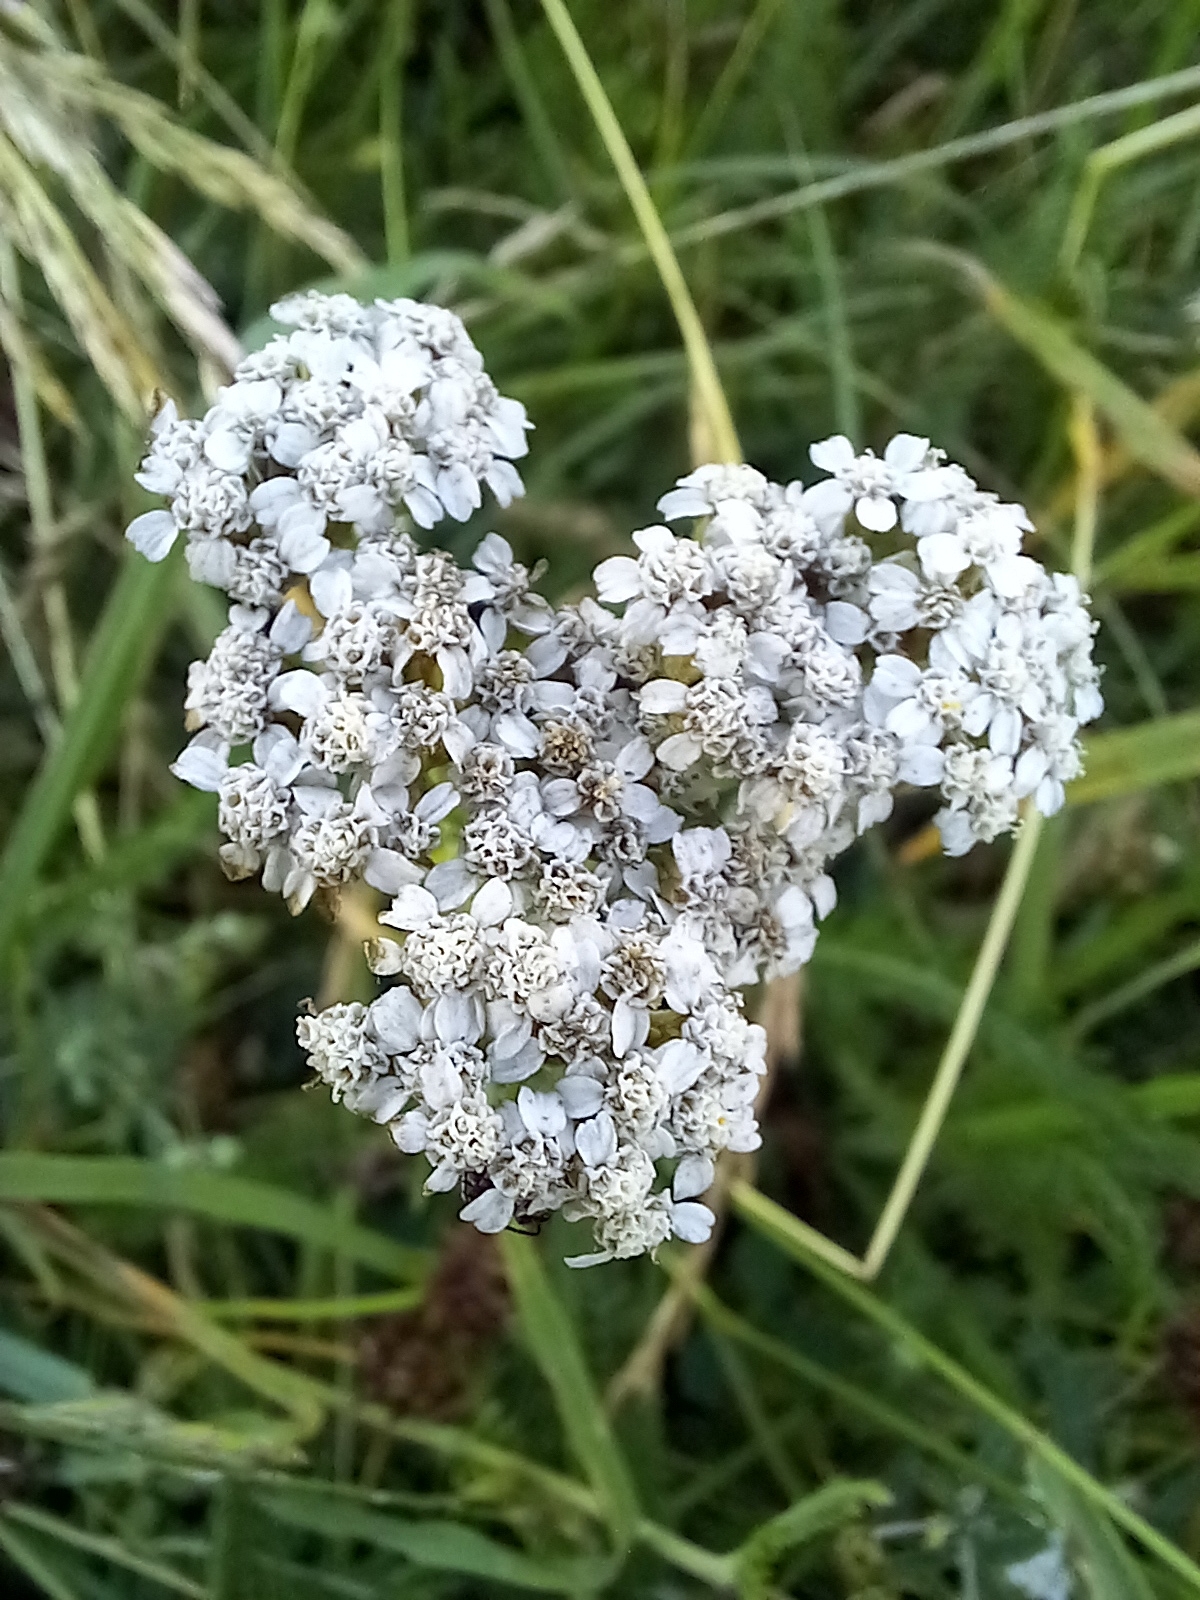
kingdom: Plantae
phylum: Tracheophyta
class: Magnoliopsida
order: Asterales
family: Asteraceae
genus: Achillea
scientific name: Achillea millefolium
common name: Yarrow
